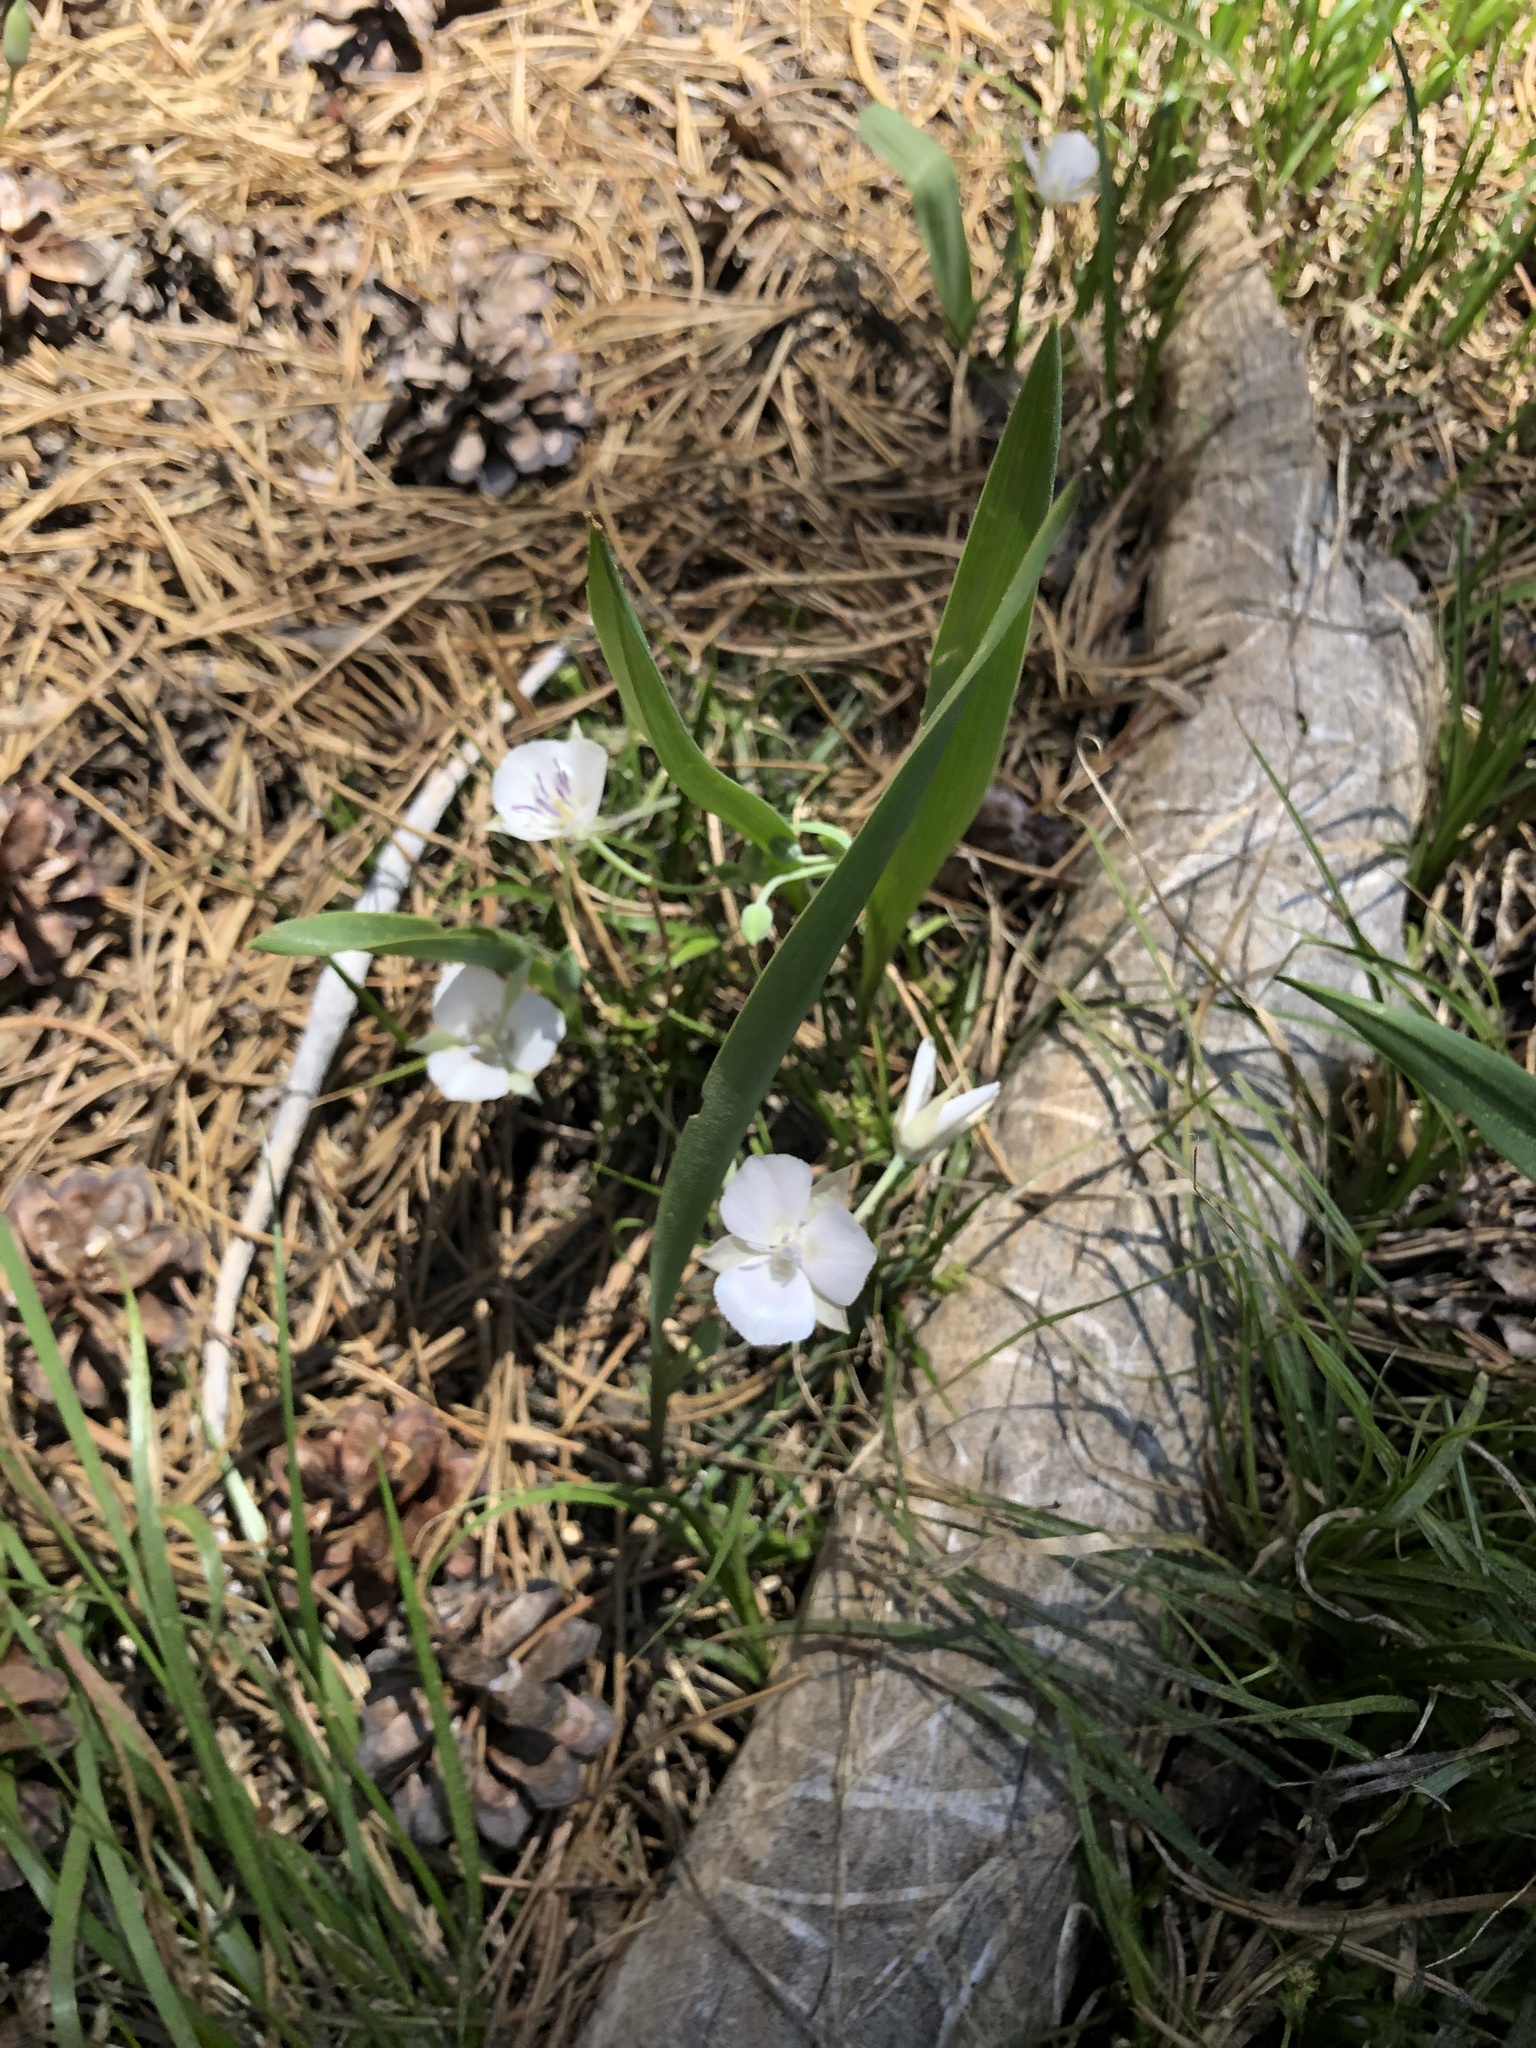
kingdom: Plantae
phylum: Tracheophyta
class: Liliopsida
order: Liliales
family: Liliaceae
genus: Calochortus
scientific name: Calochortus minimus
